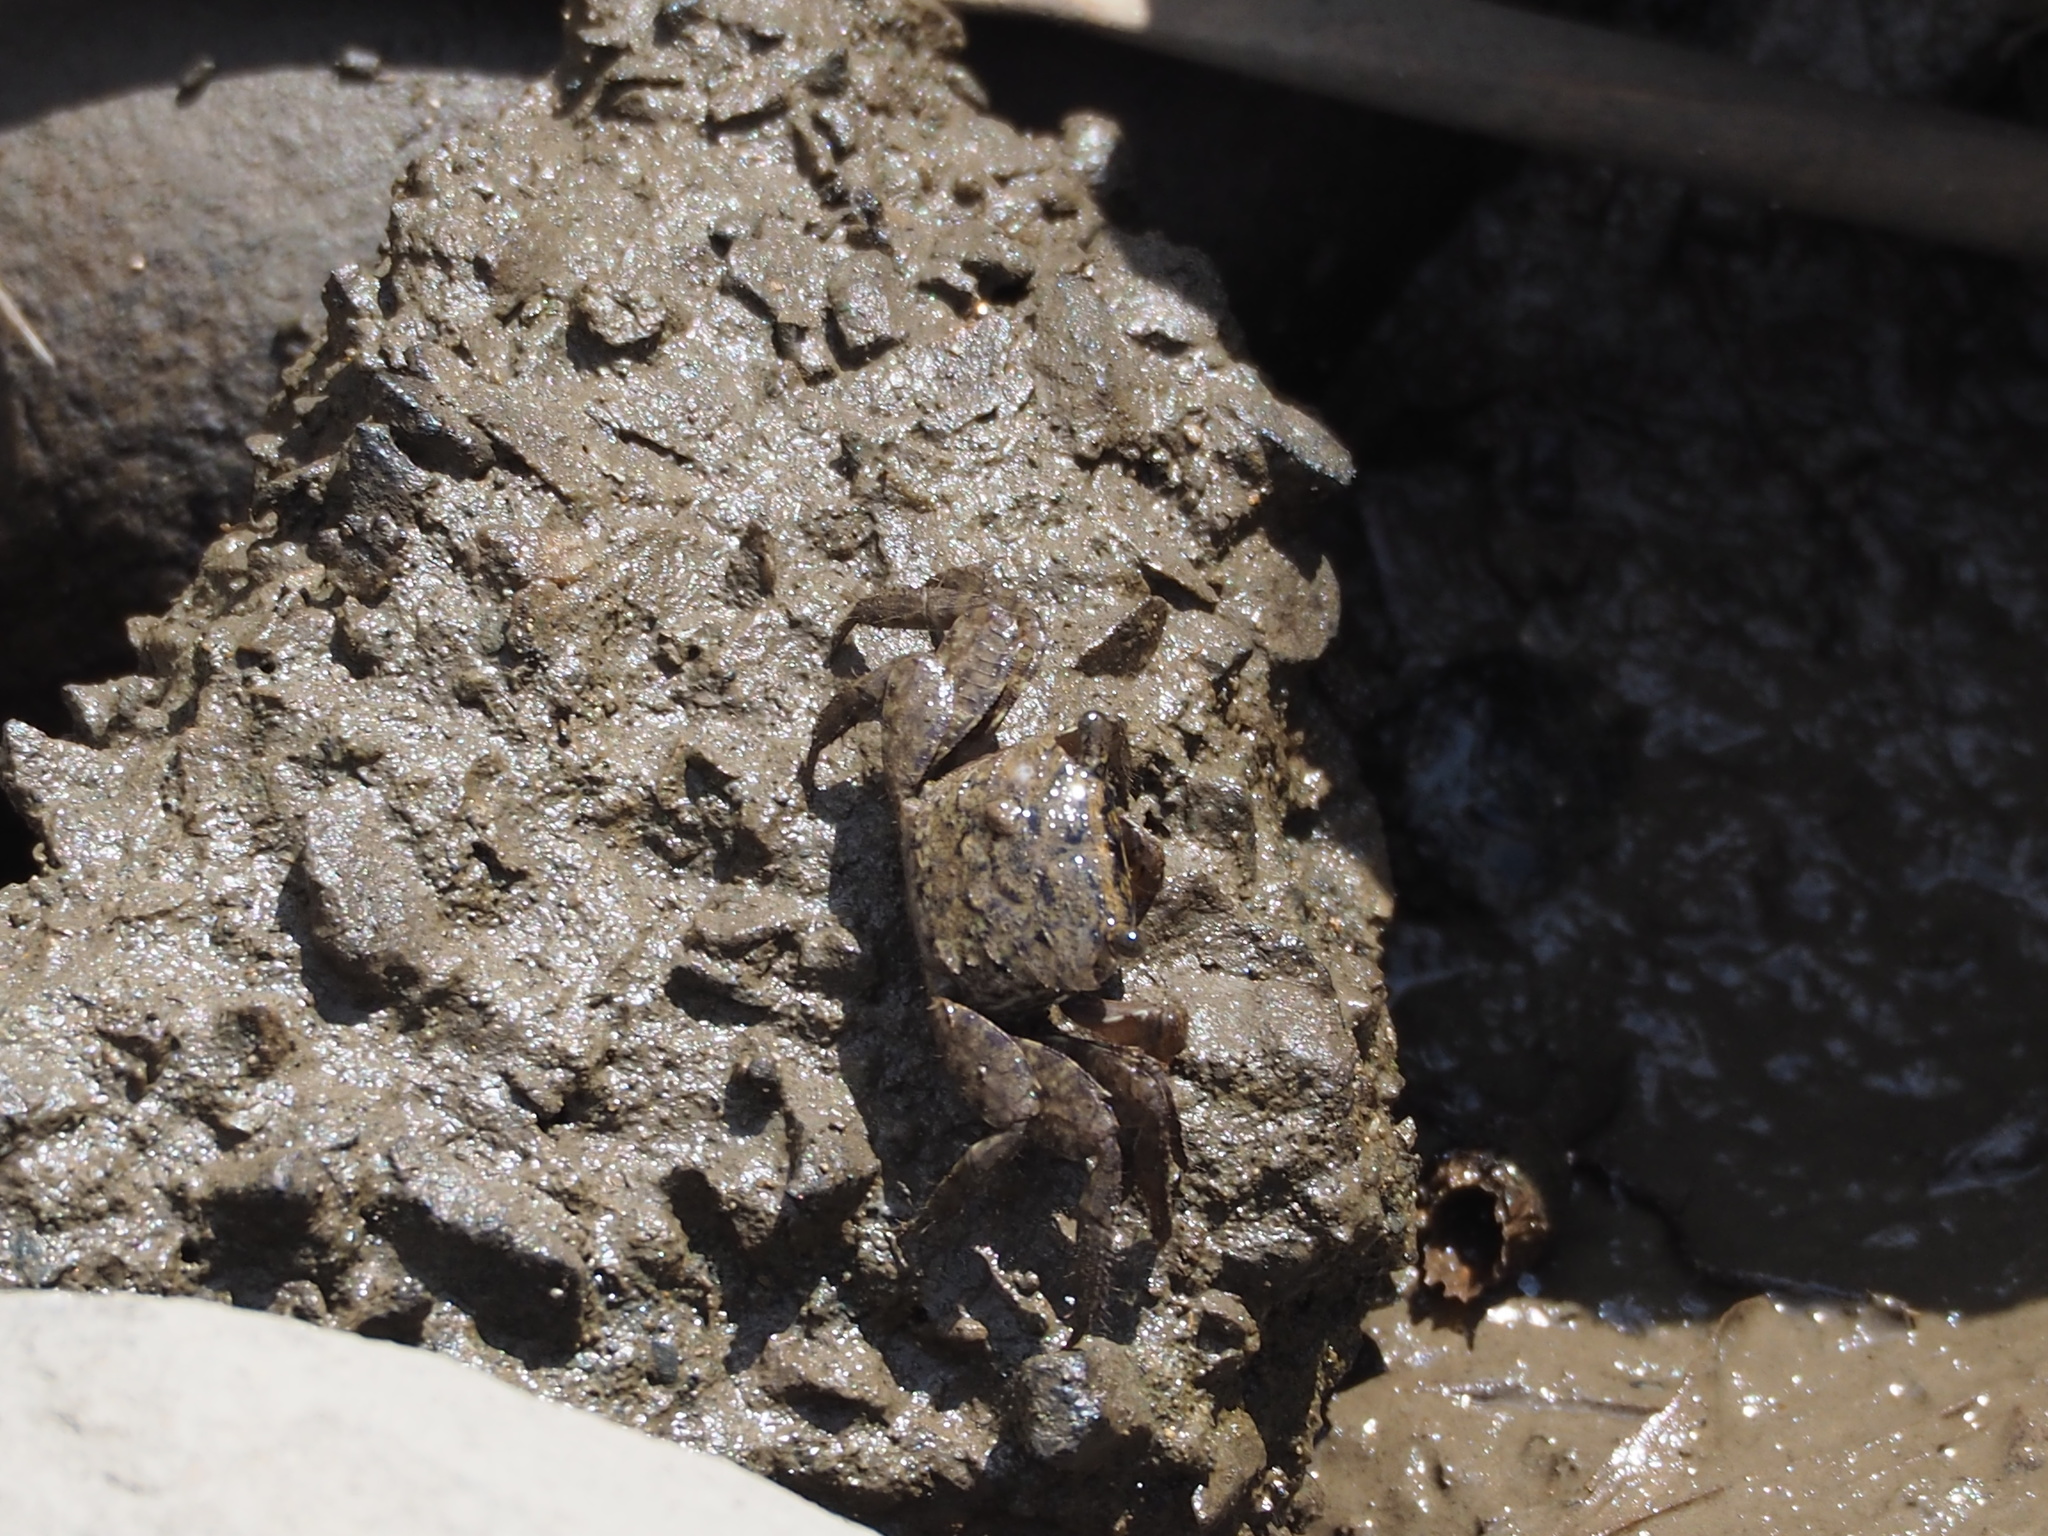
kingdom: Animalia
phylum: Arthropoda
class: Malacostraca
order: Decapoda
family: Sesarmidae
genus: Parasesarma
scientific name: Parasesarma affine
